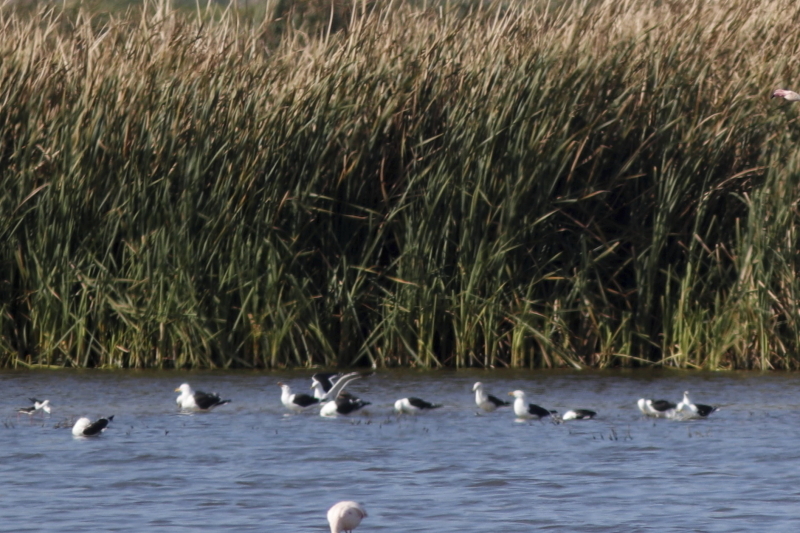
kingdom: Animalia
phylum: Chordata
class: Aves
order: Charadriiformes
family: Laridae
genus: Larus
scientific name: Larus dominicanus
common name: Kelp gull
